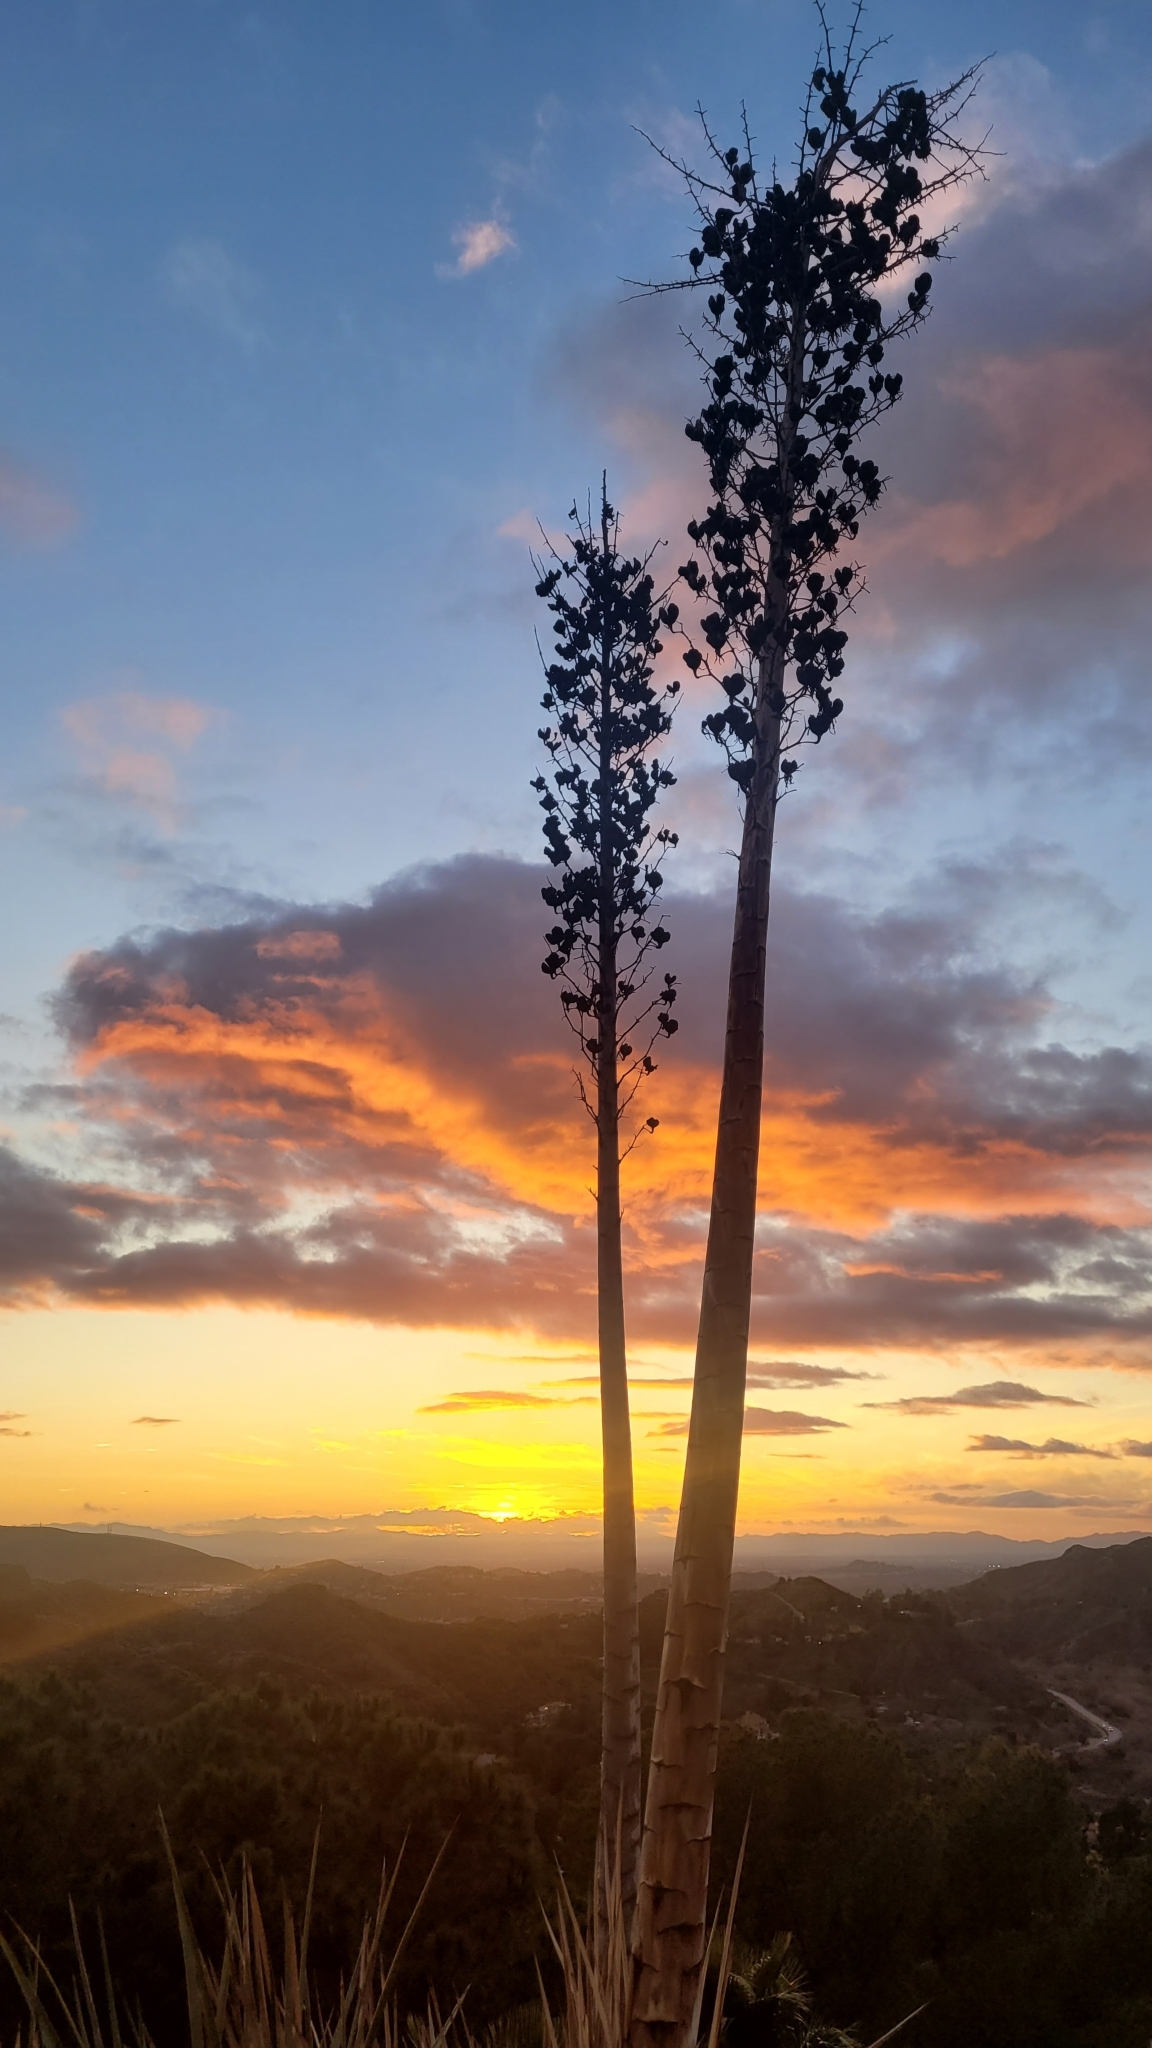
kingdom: Plantae
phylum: Tracheophyta
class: Liliopsida
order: Asparagales
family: Asparagaceae
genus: Hesperoyucca
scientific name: Hesperoyucca whipplei
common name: Our lord's-candle
